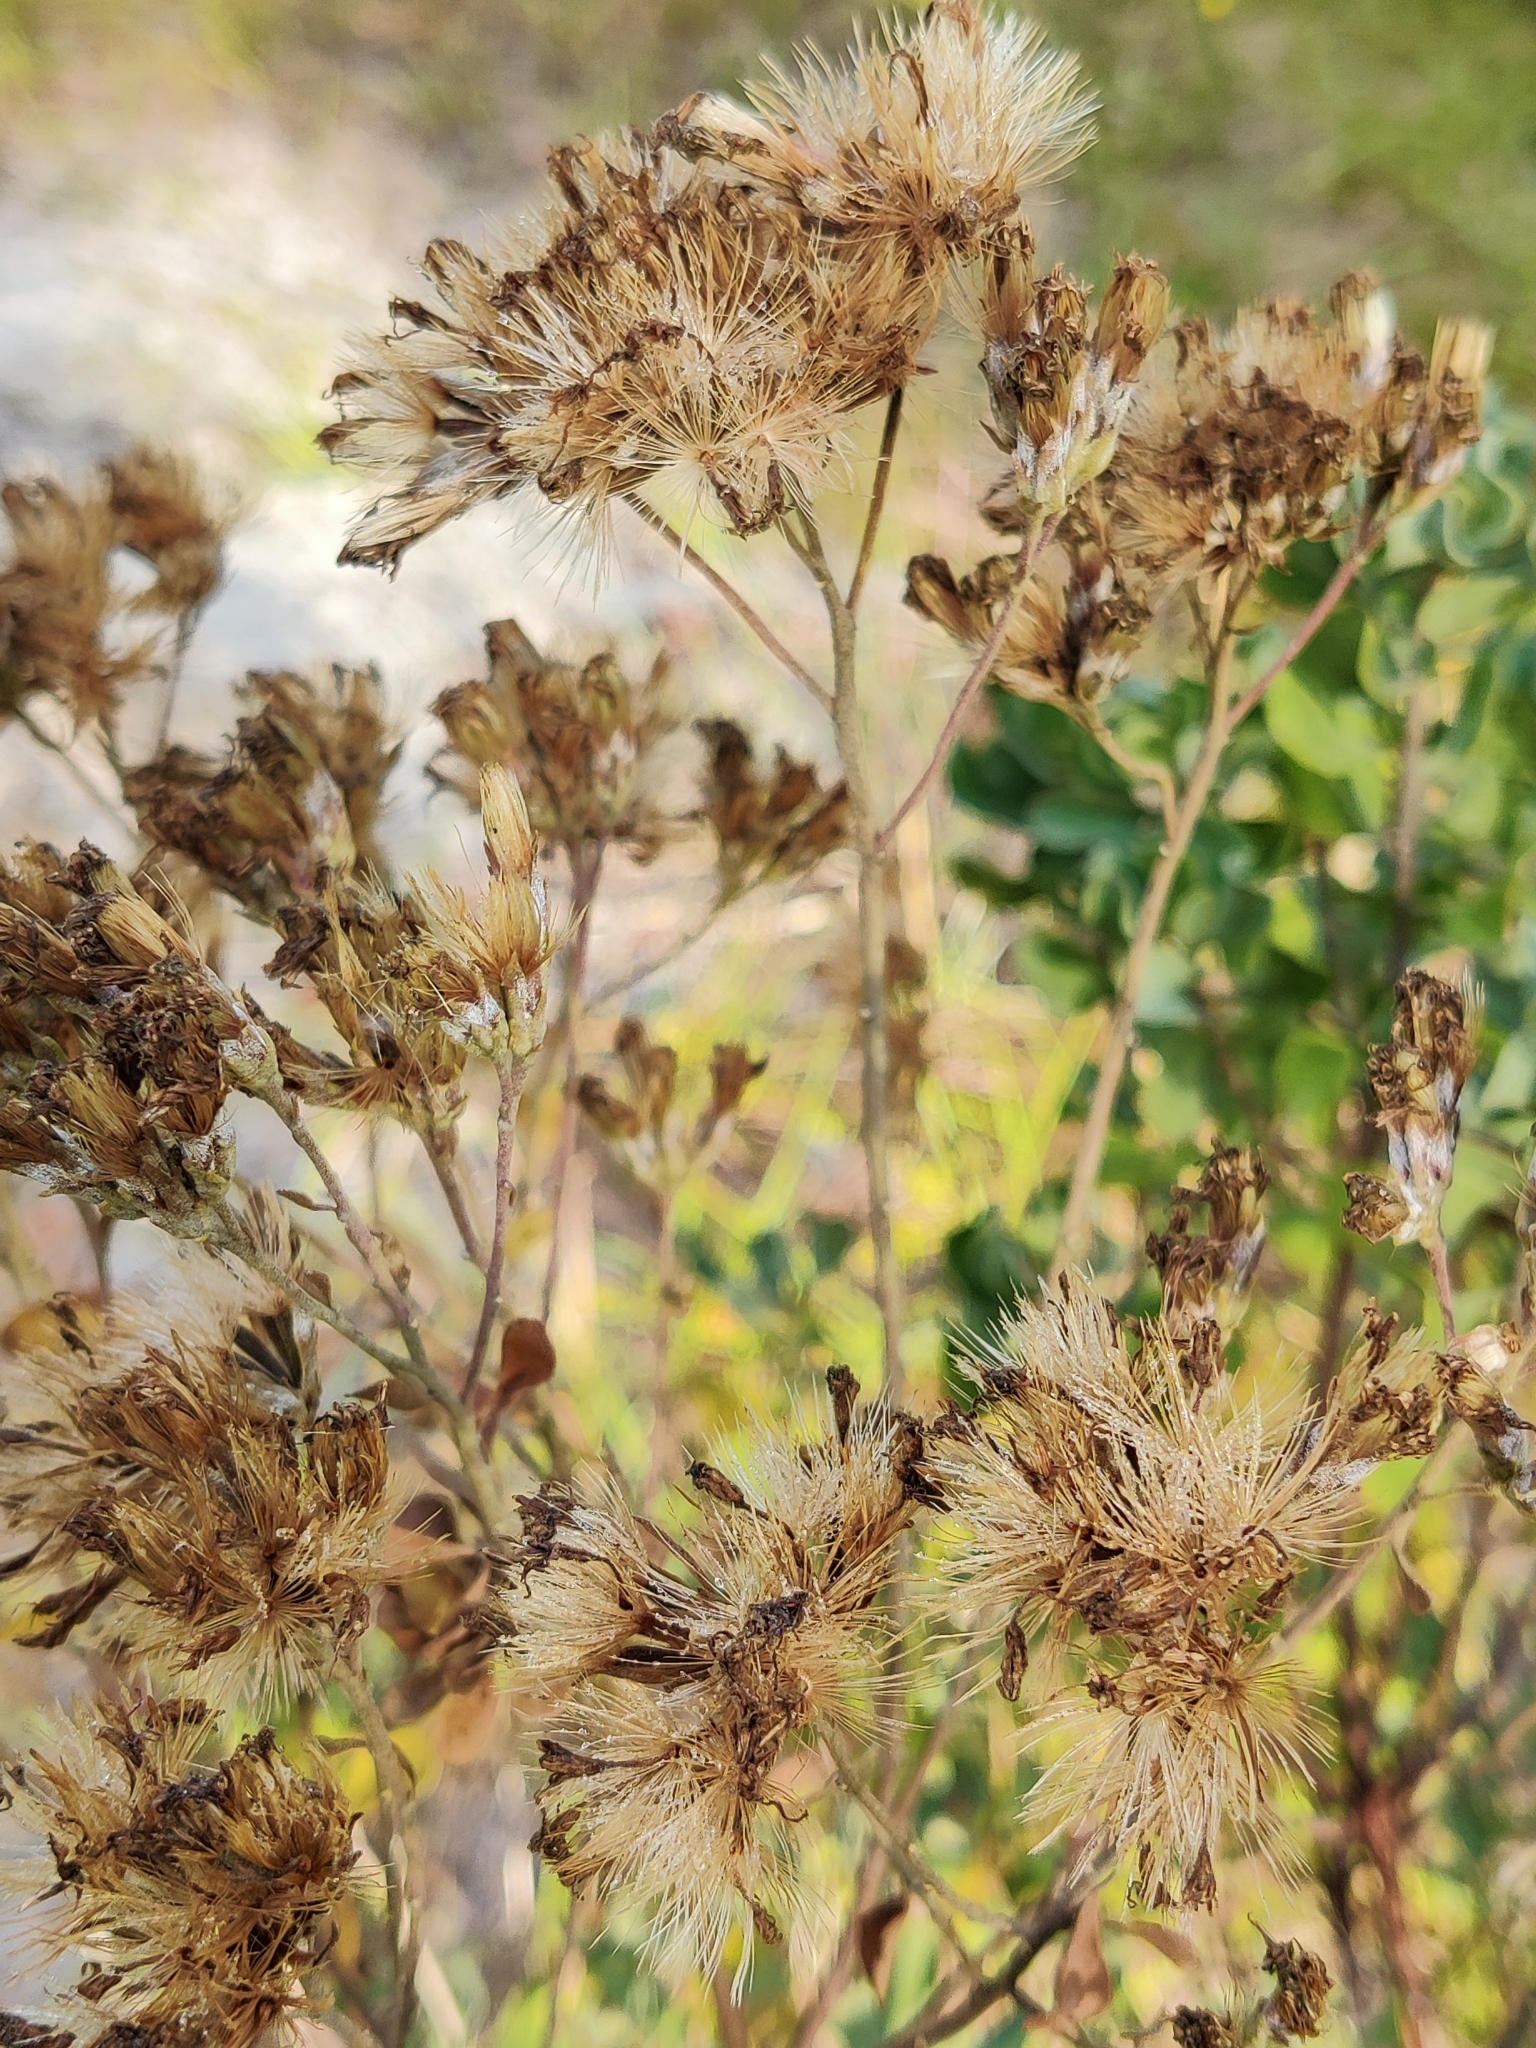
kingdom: Plantae
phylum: Tracheophyta
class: Magnoliopsida
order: Asterales
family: Asteraceae
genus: Garberia
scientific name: Garberia heterophylla
